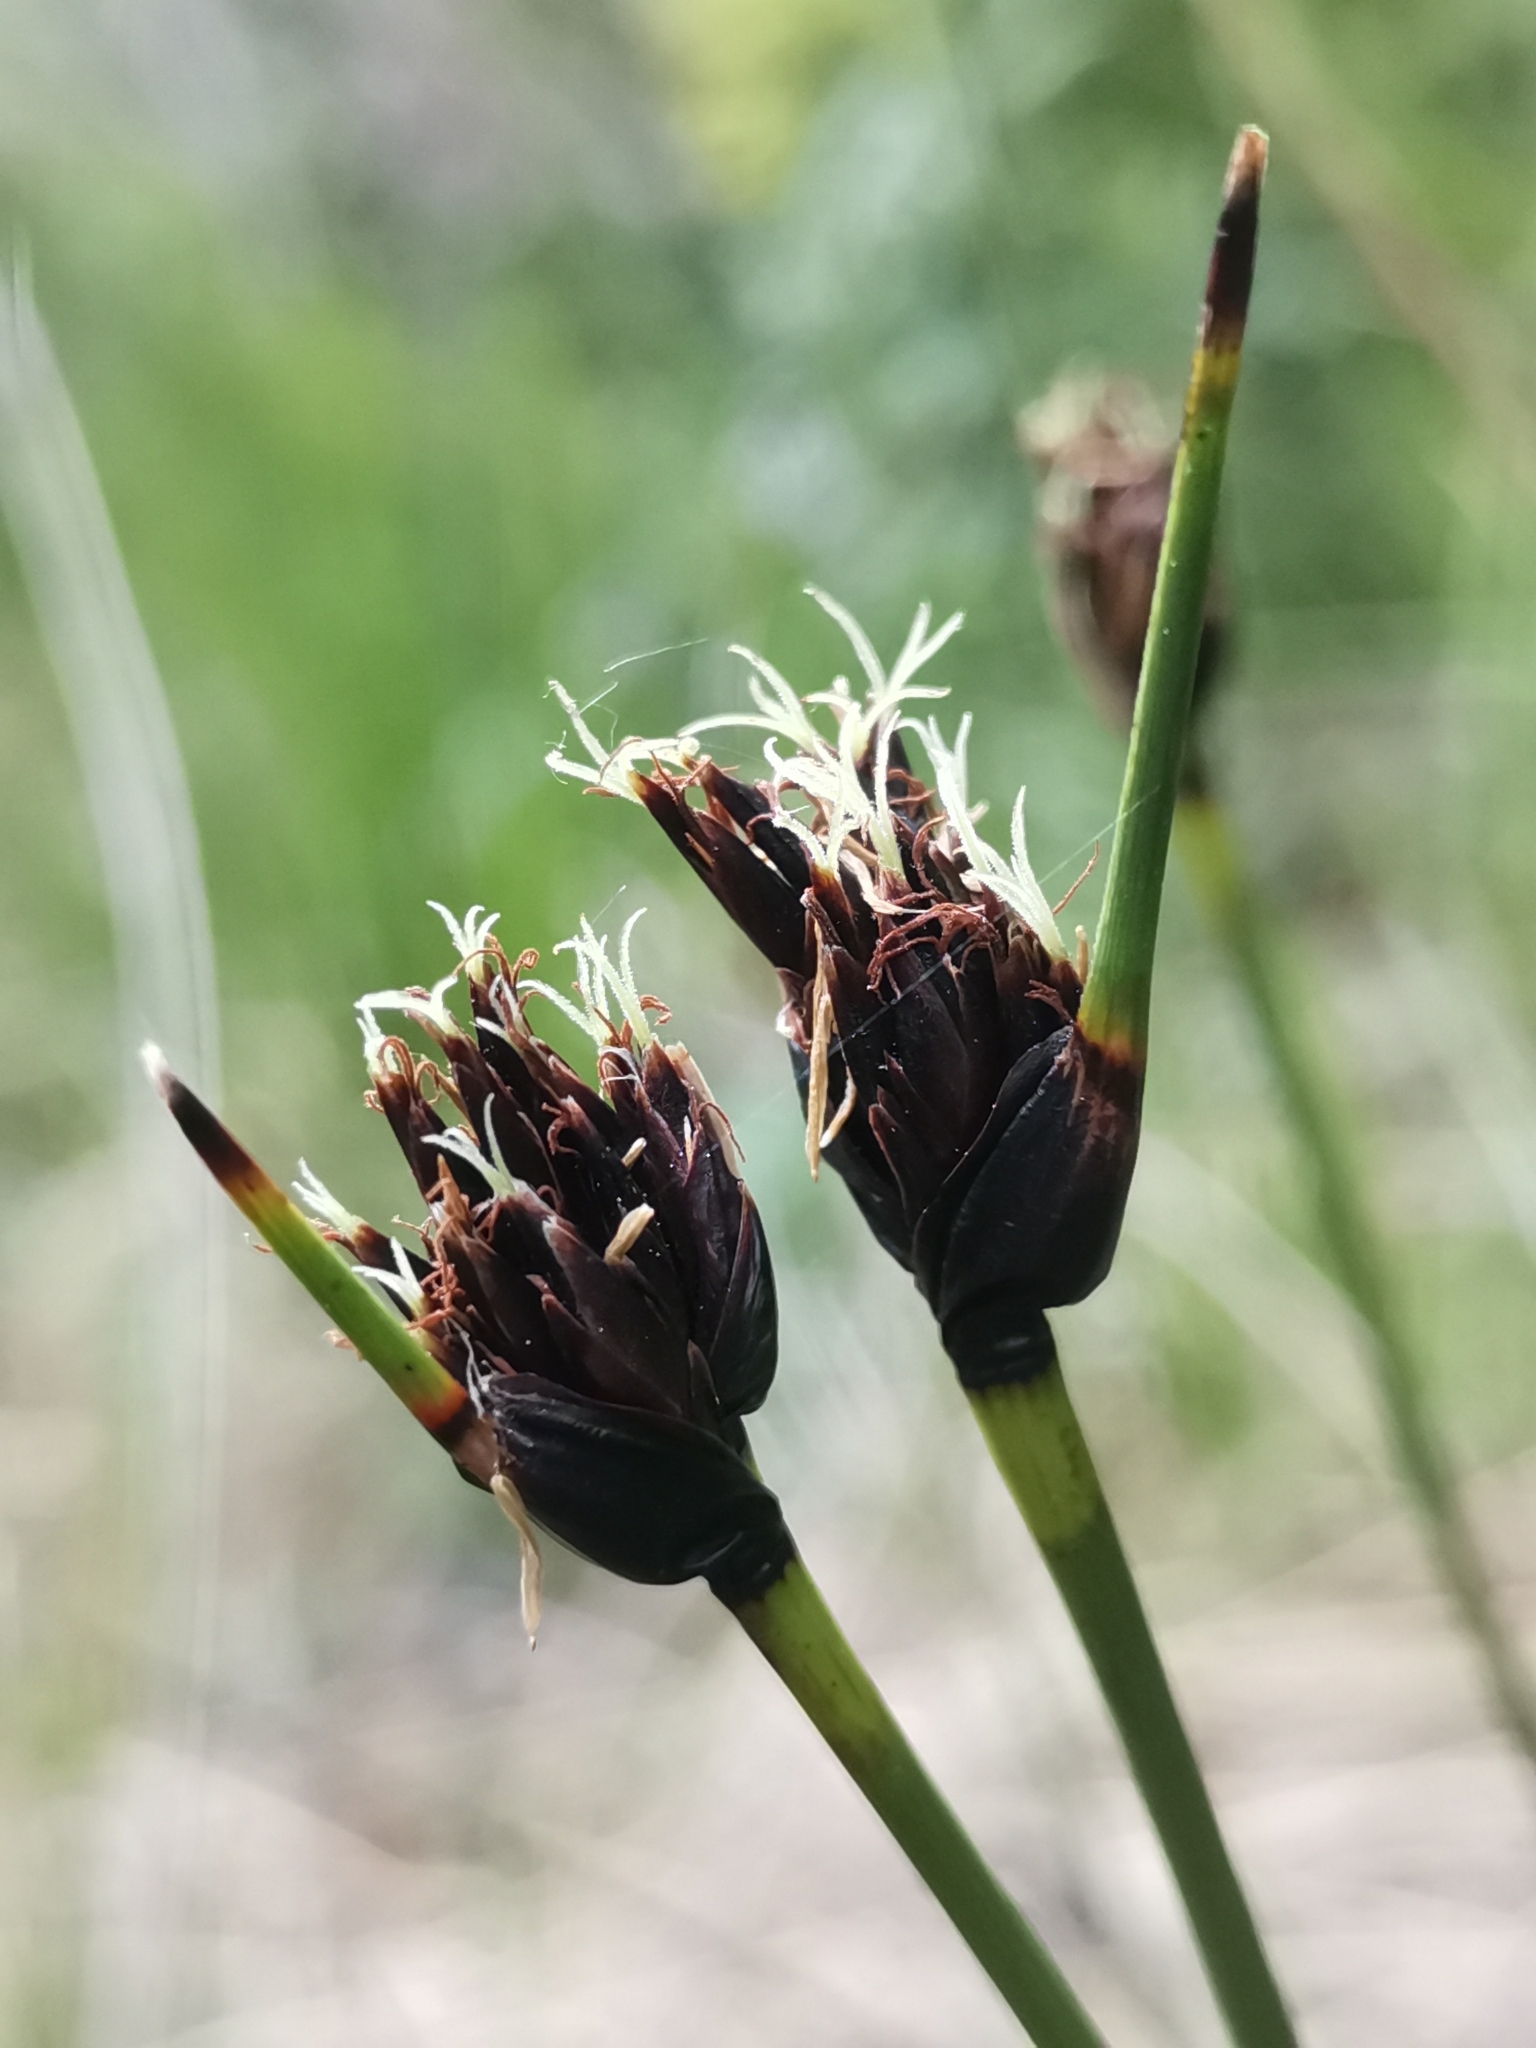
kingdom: Plantae
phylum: Tracheophyta
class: Liliopsida
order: Poales
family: Cyperaceae
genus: Schoenus
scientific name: Schoenus nigricans
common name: Black bog-rush
